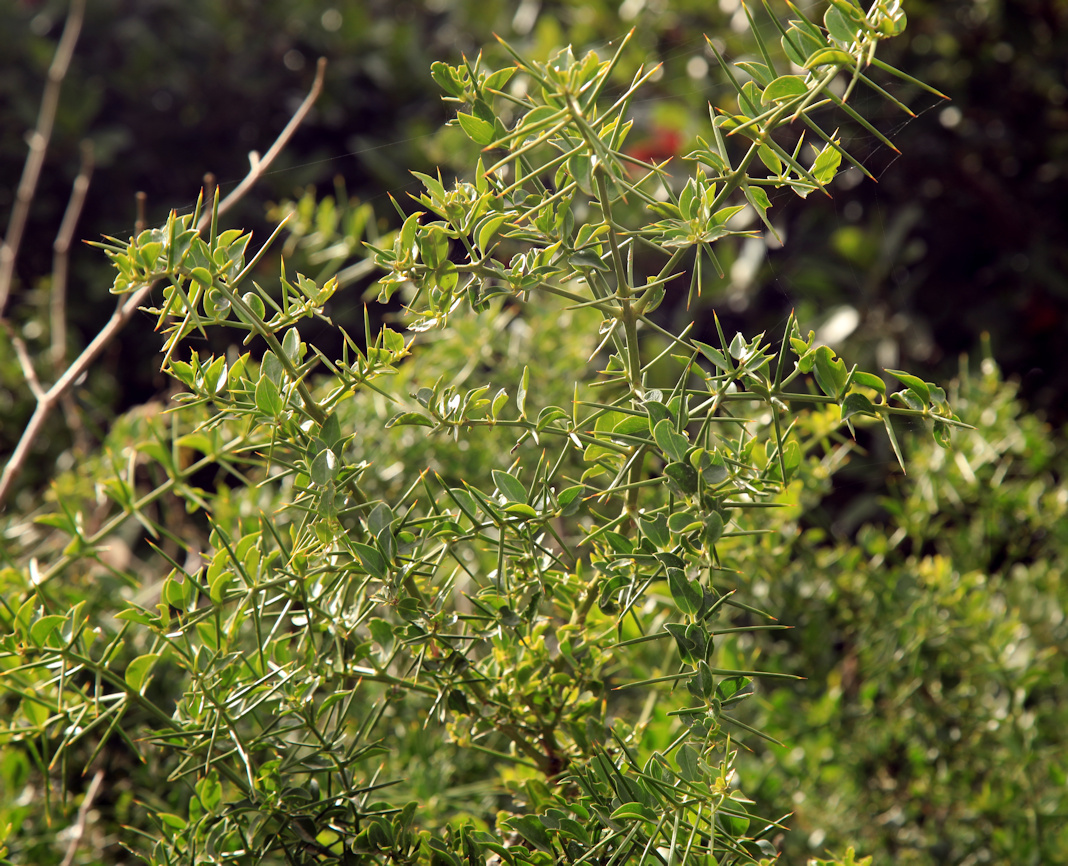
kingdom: Plantae
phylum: Tracheophyta
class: Magnoliopsida
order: Brassicales
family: Salvadoraceae
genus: Azima
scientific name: Azima tetracantha
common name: Needle bush
